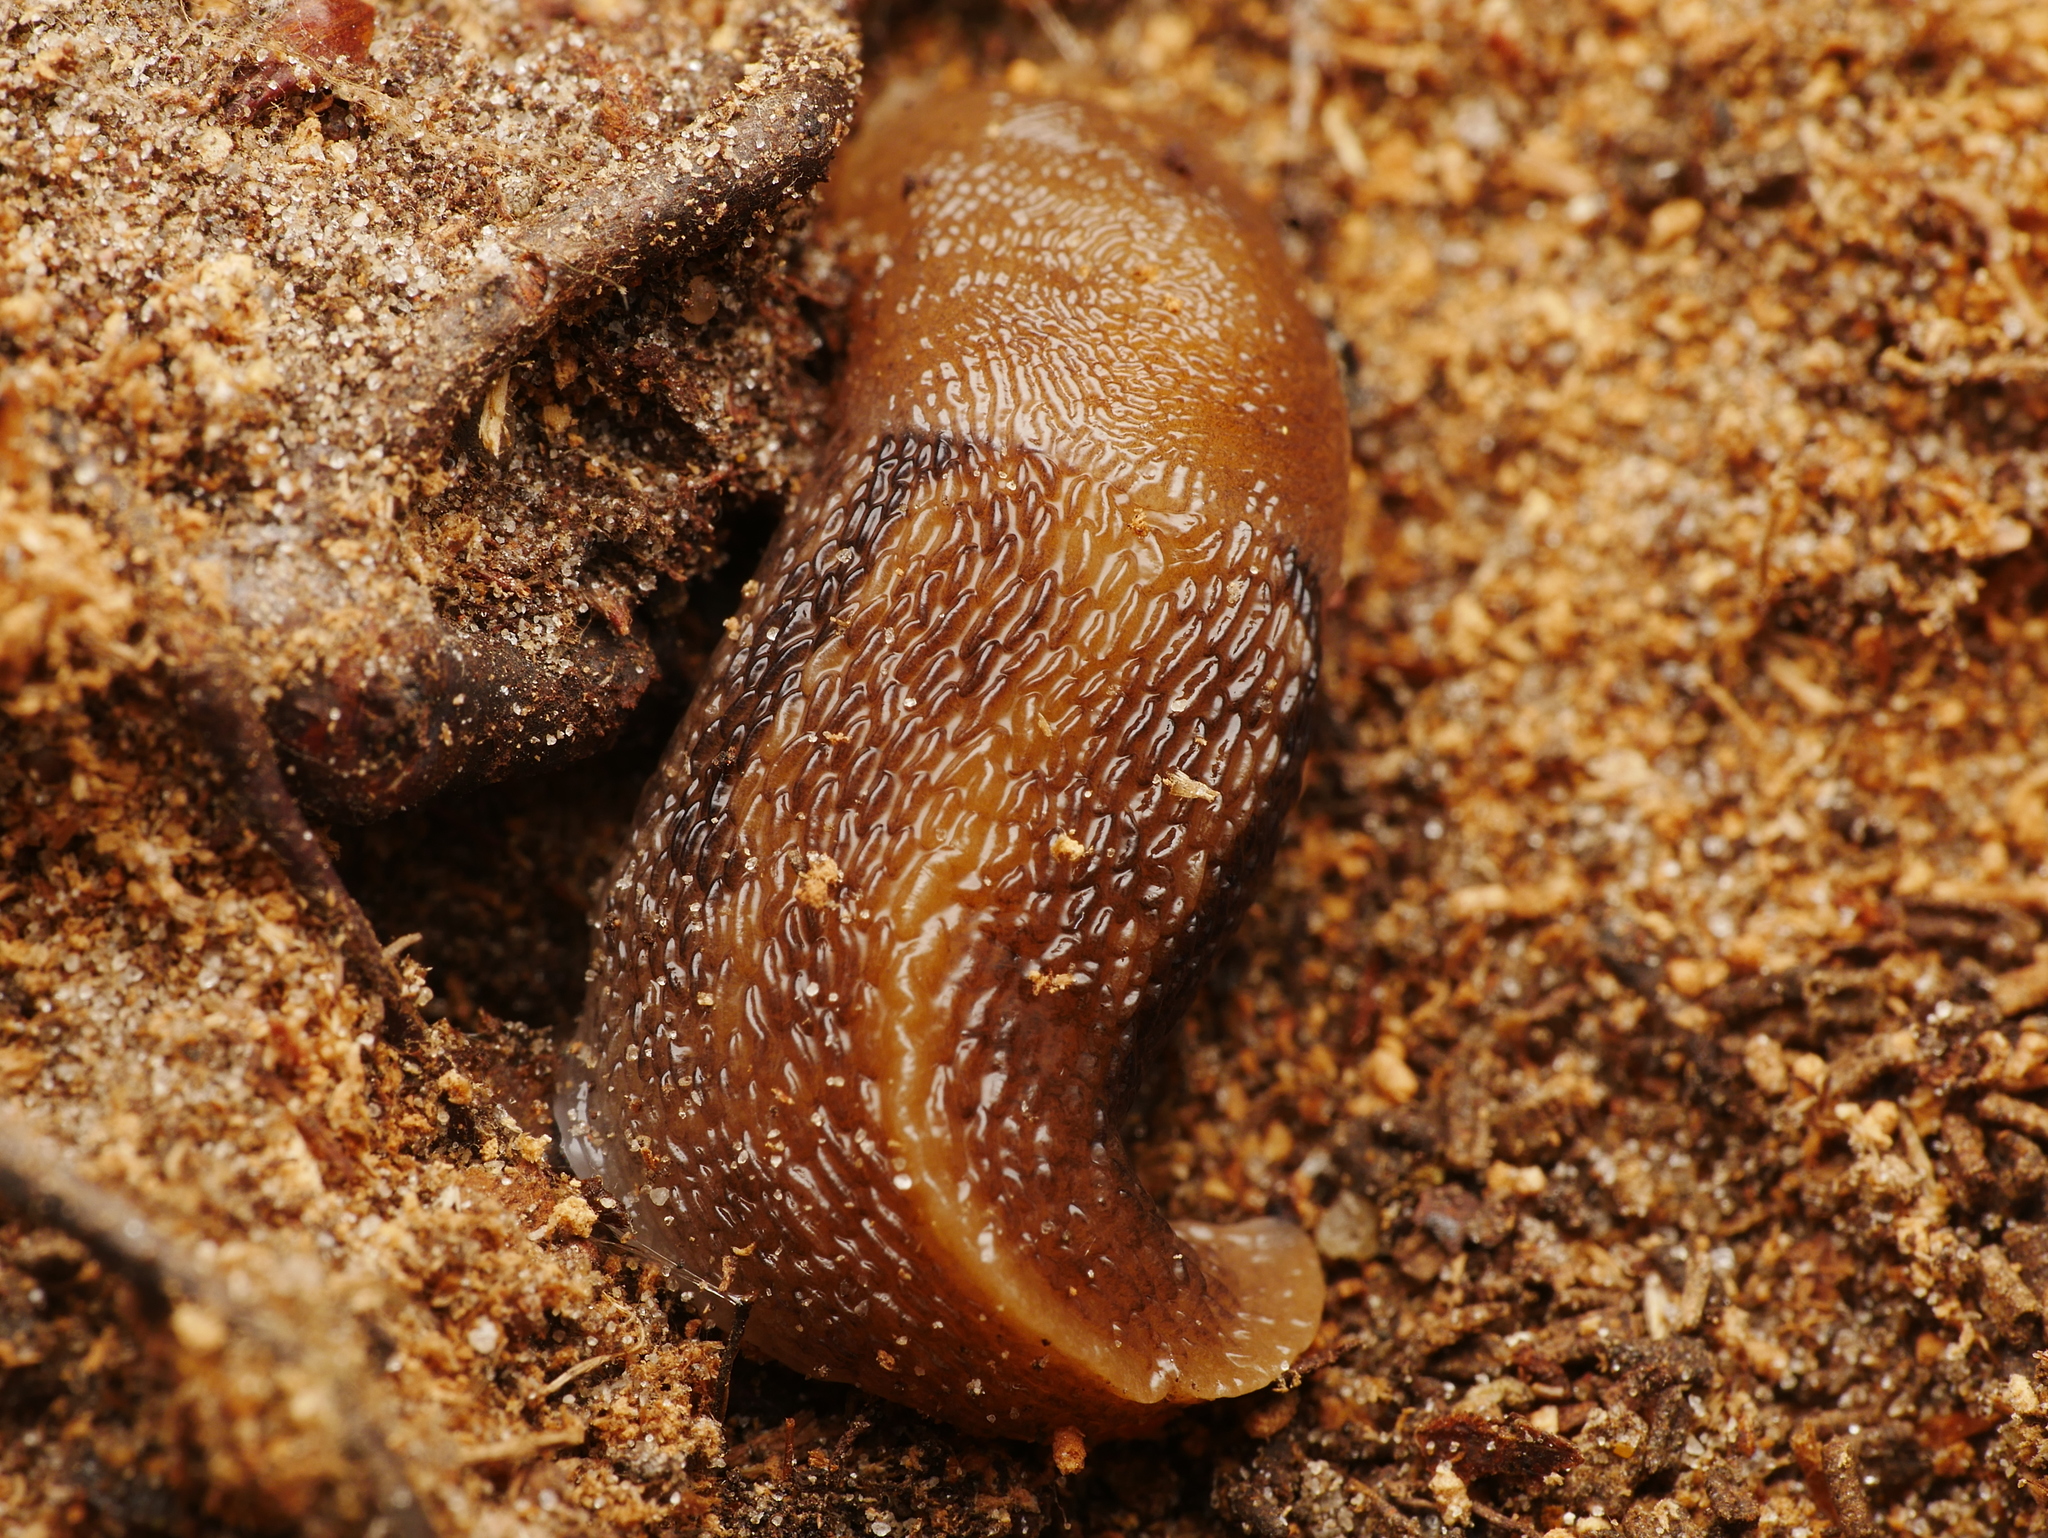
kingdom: Animalia
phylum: Mollusca
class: Gastropoda
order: Stylommatophora
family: Limacidae
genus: Limax
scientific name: Limax maximus
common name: Great grey slug
